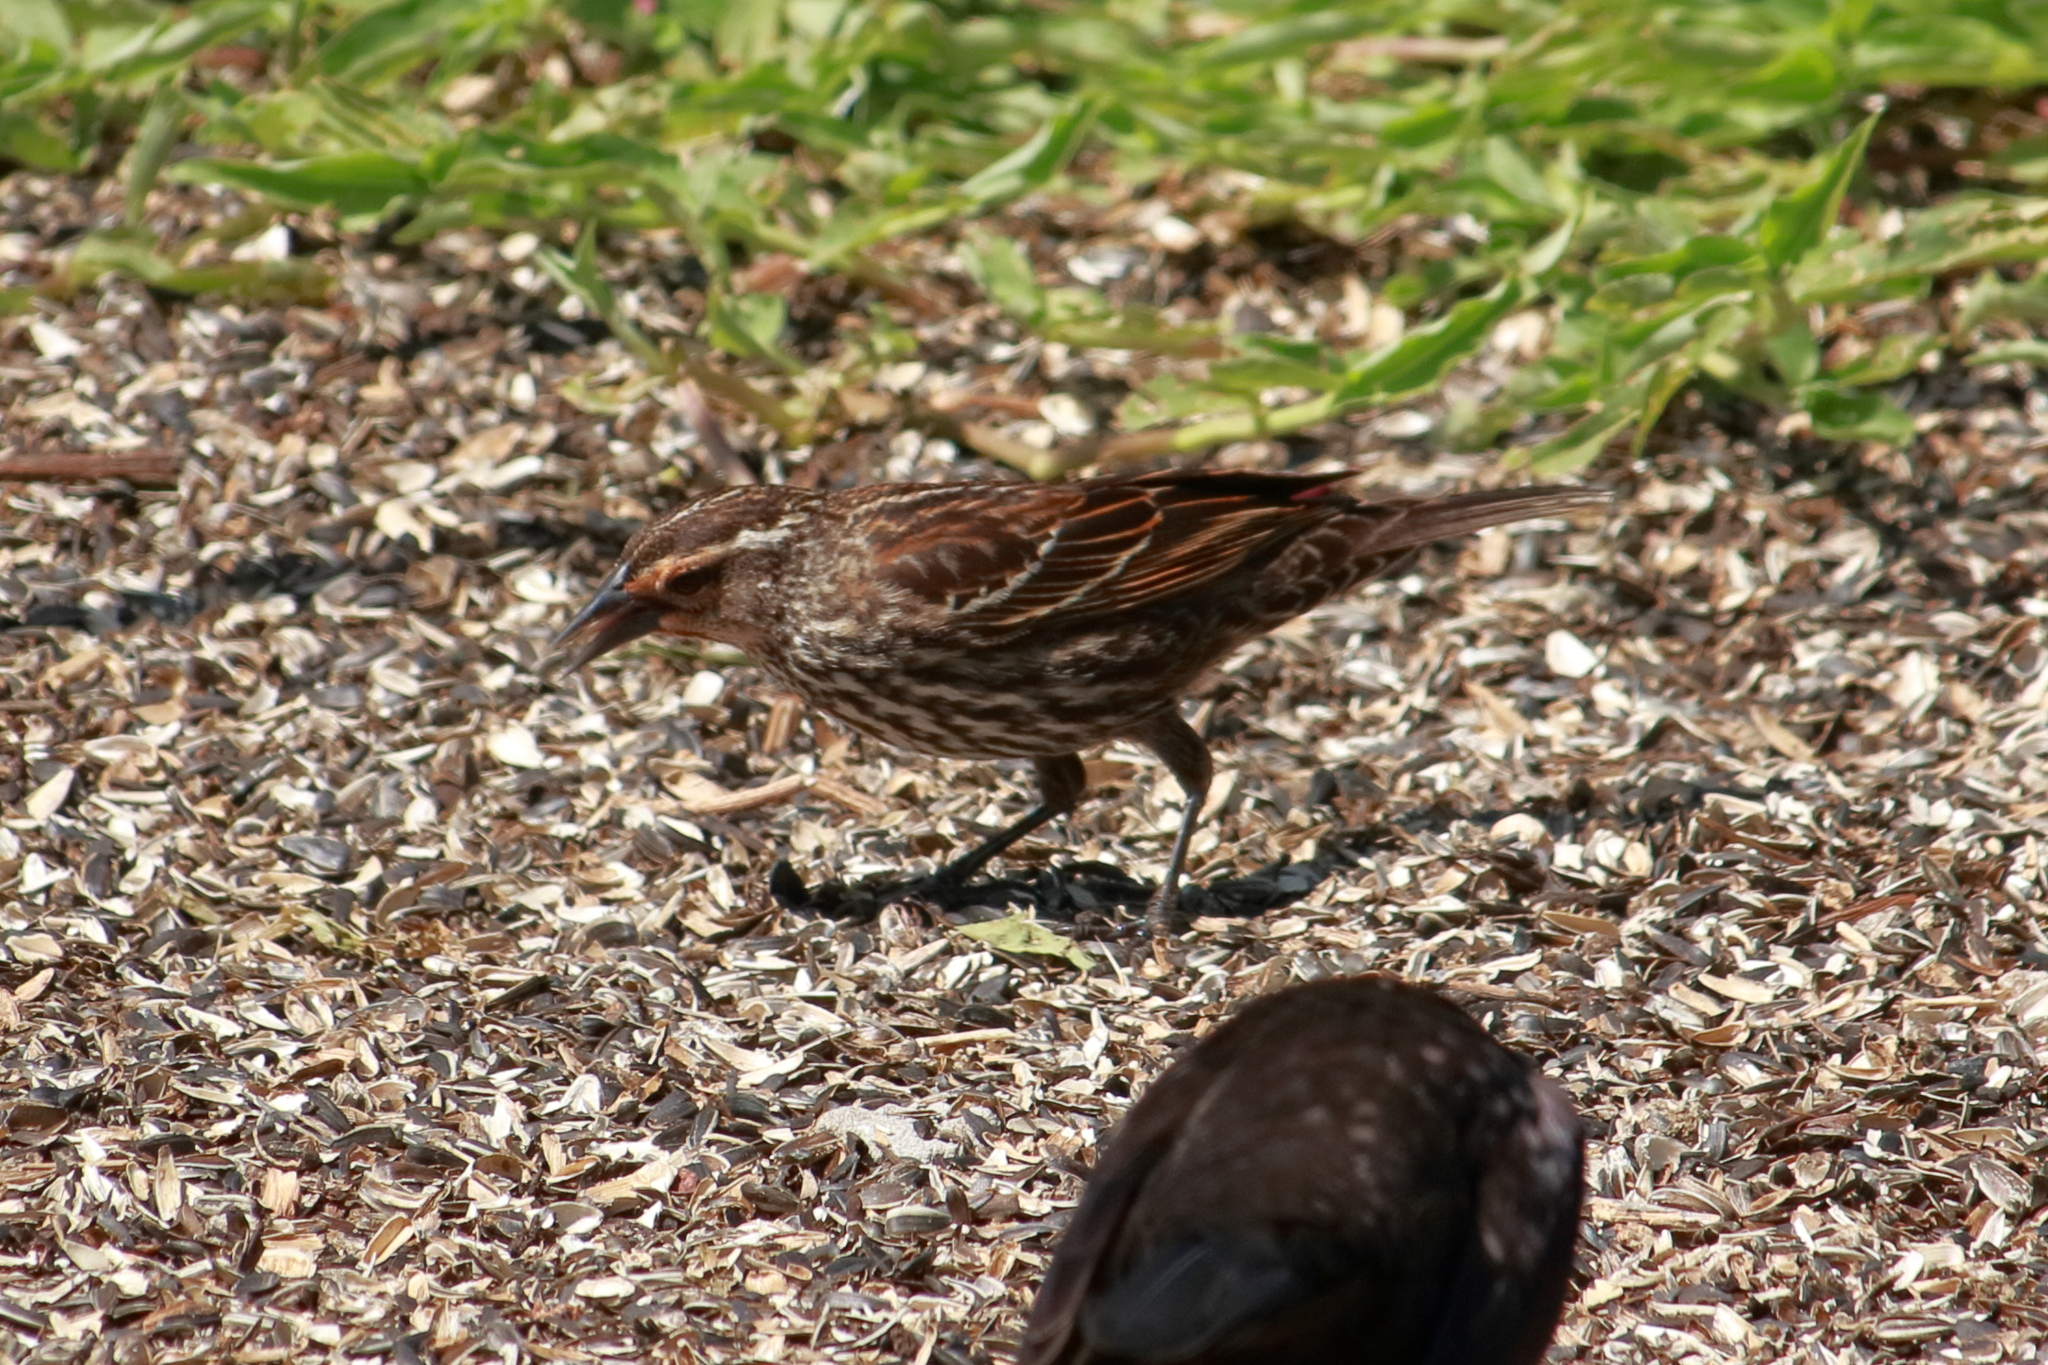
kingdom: Animalia
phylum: Chordata
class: Aves
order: Passeriformes
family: Icteridae
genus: Agelaius
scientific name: Agelaius phoeniceus
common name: Red-winged blackbird
